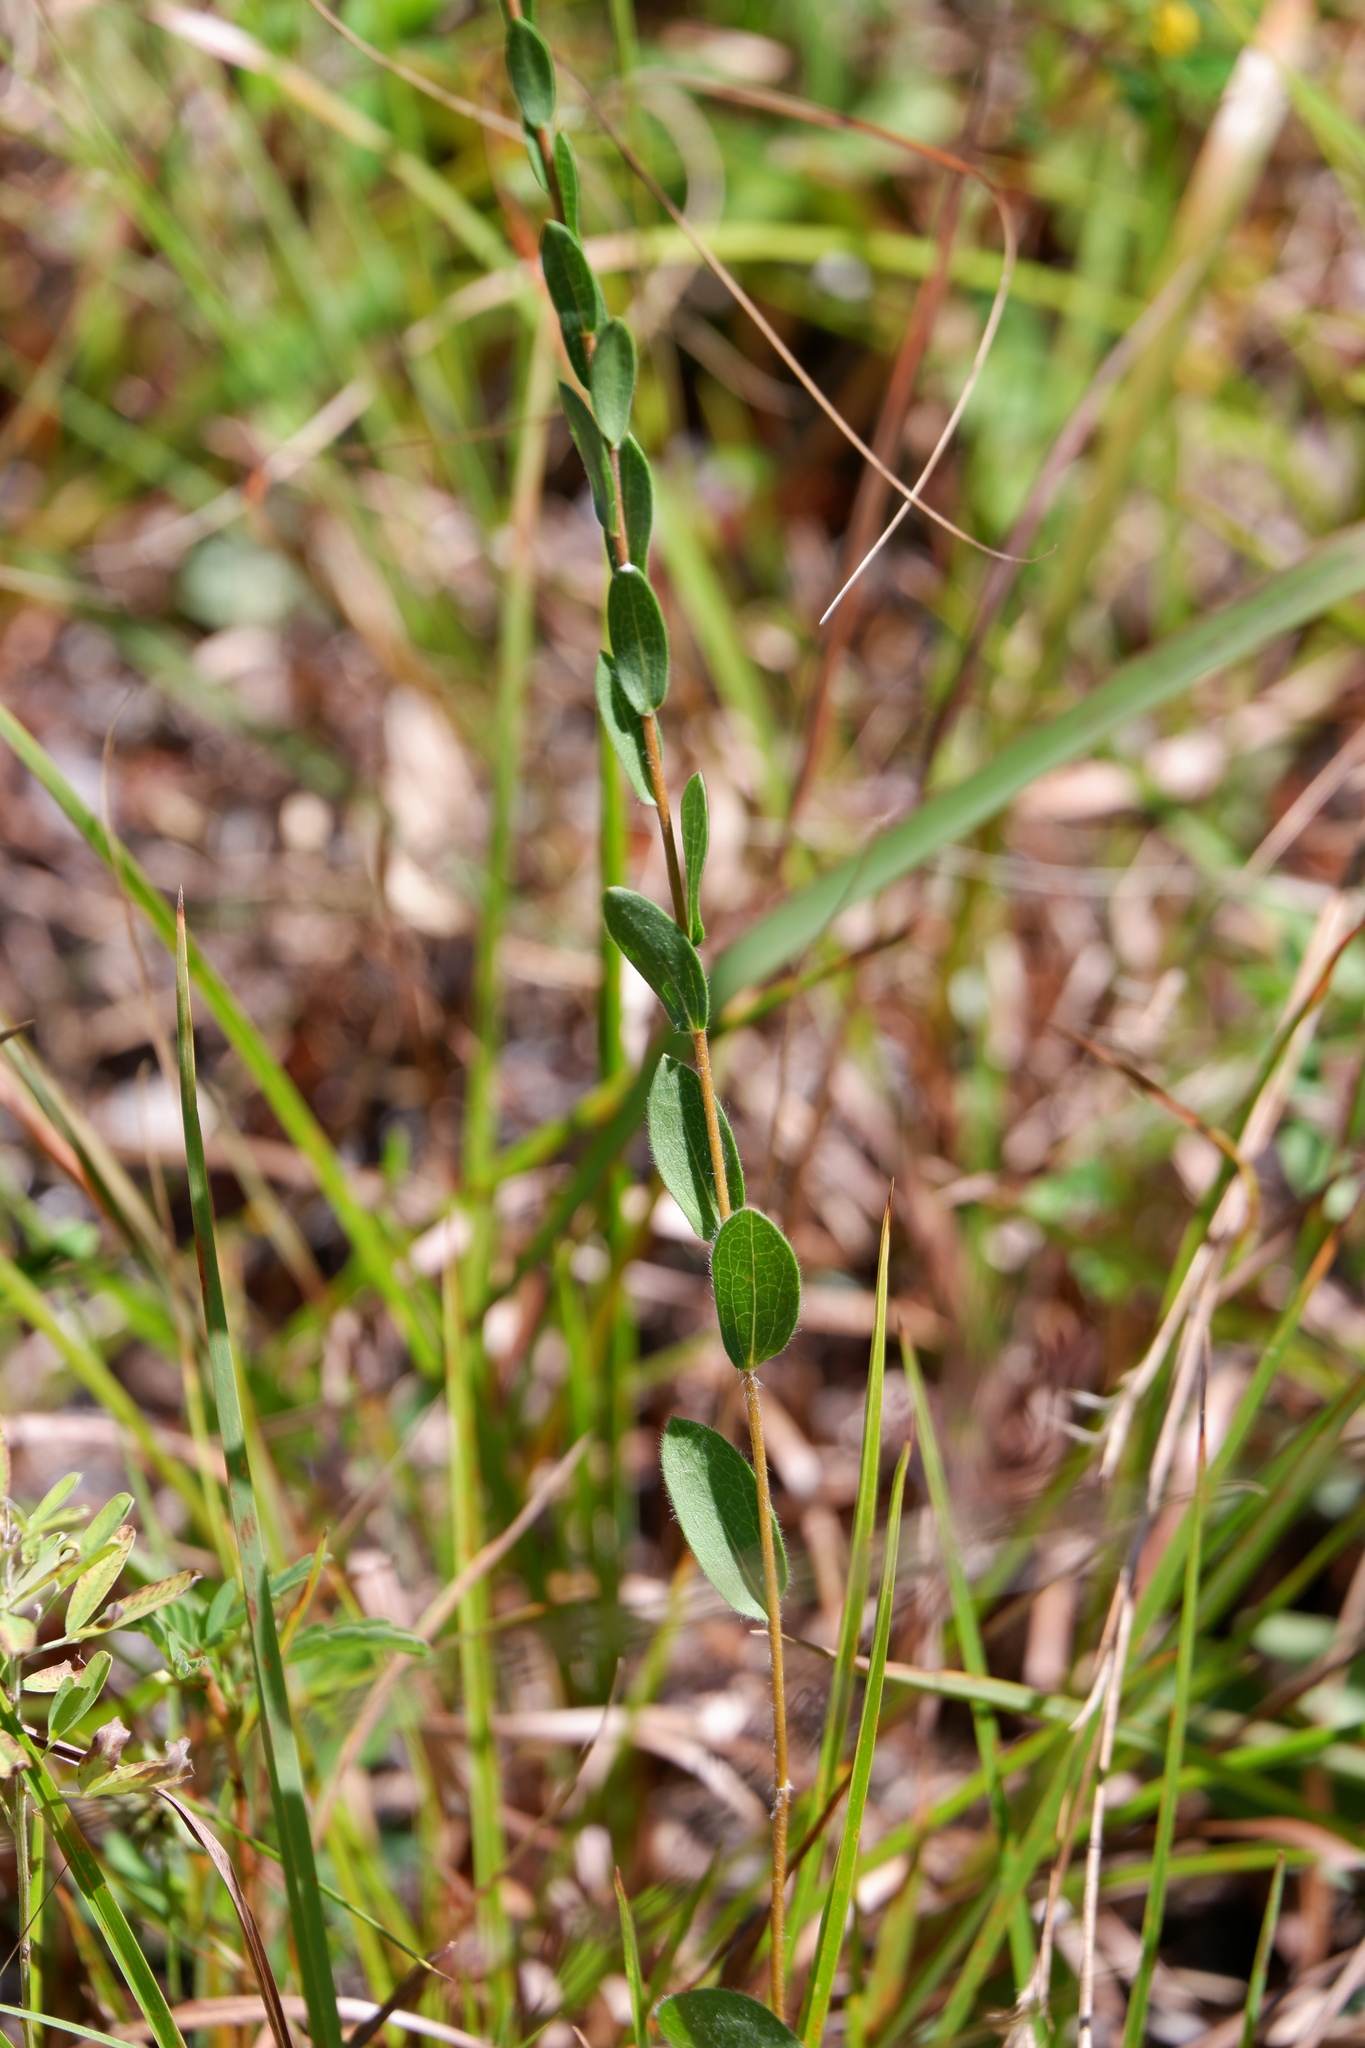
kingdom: Plantae
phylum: Tracheophyta
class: Magnoliopsida
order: Asterales
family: Asteraceae
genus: Symphyotrichum
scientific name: Symphyotrichum concolor
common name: Eastern silver aster
